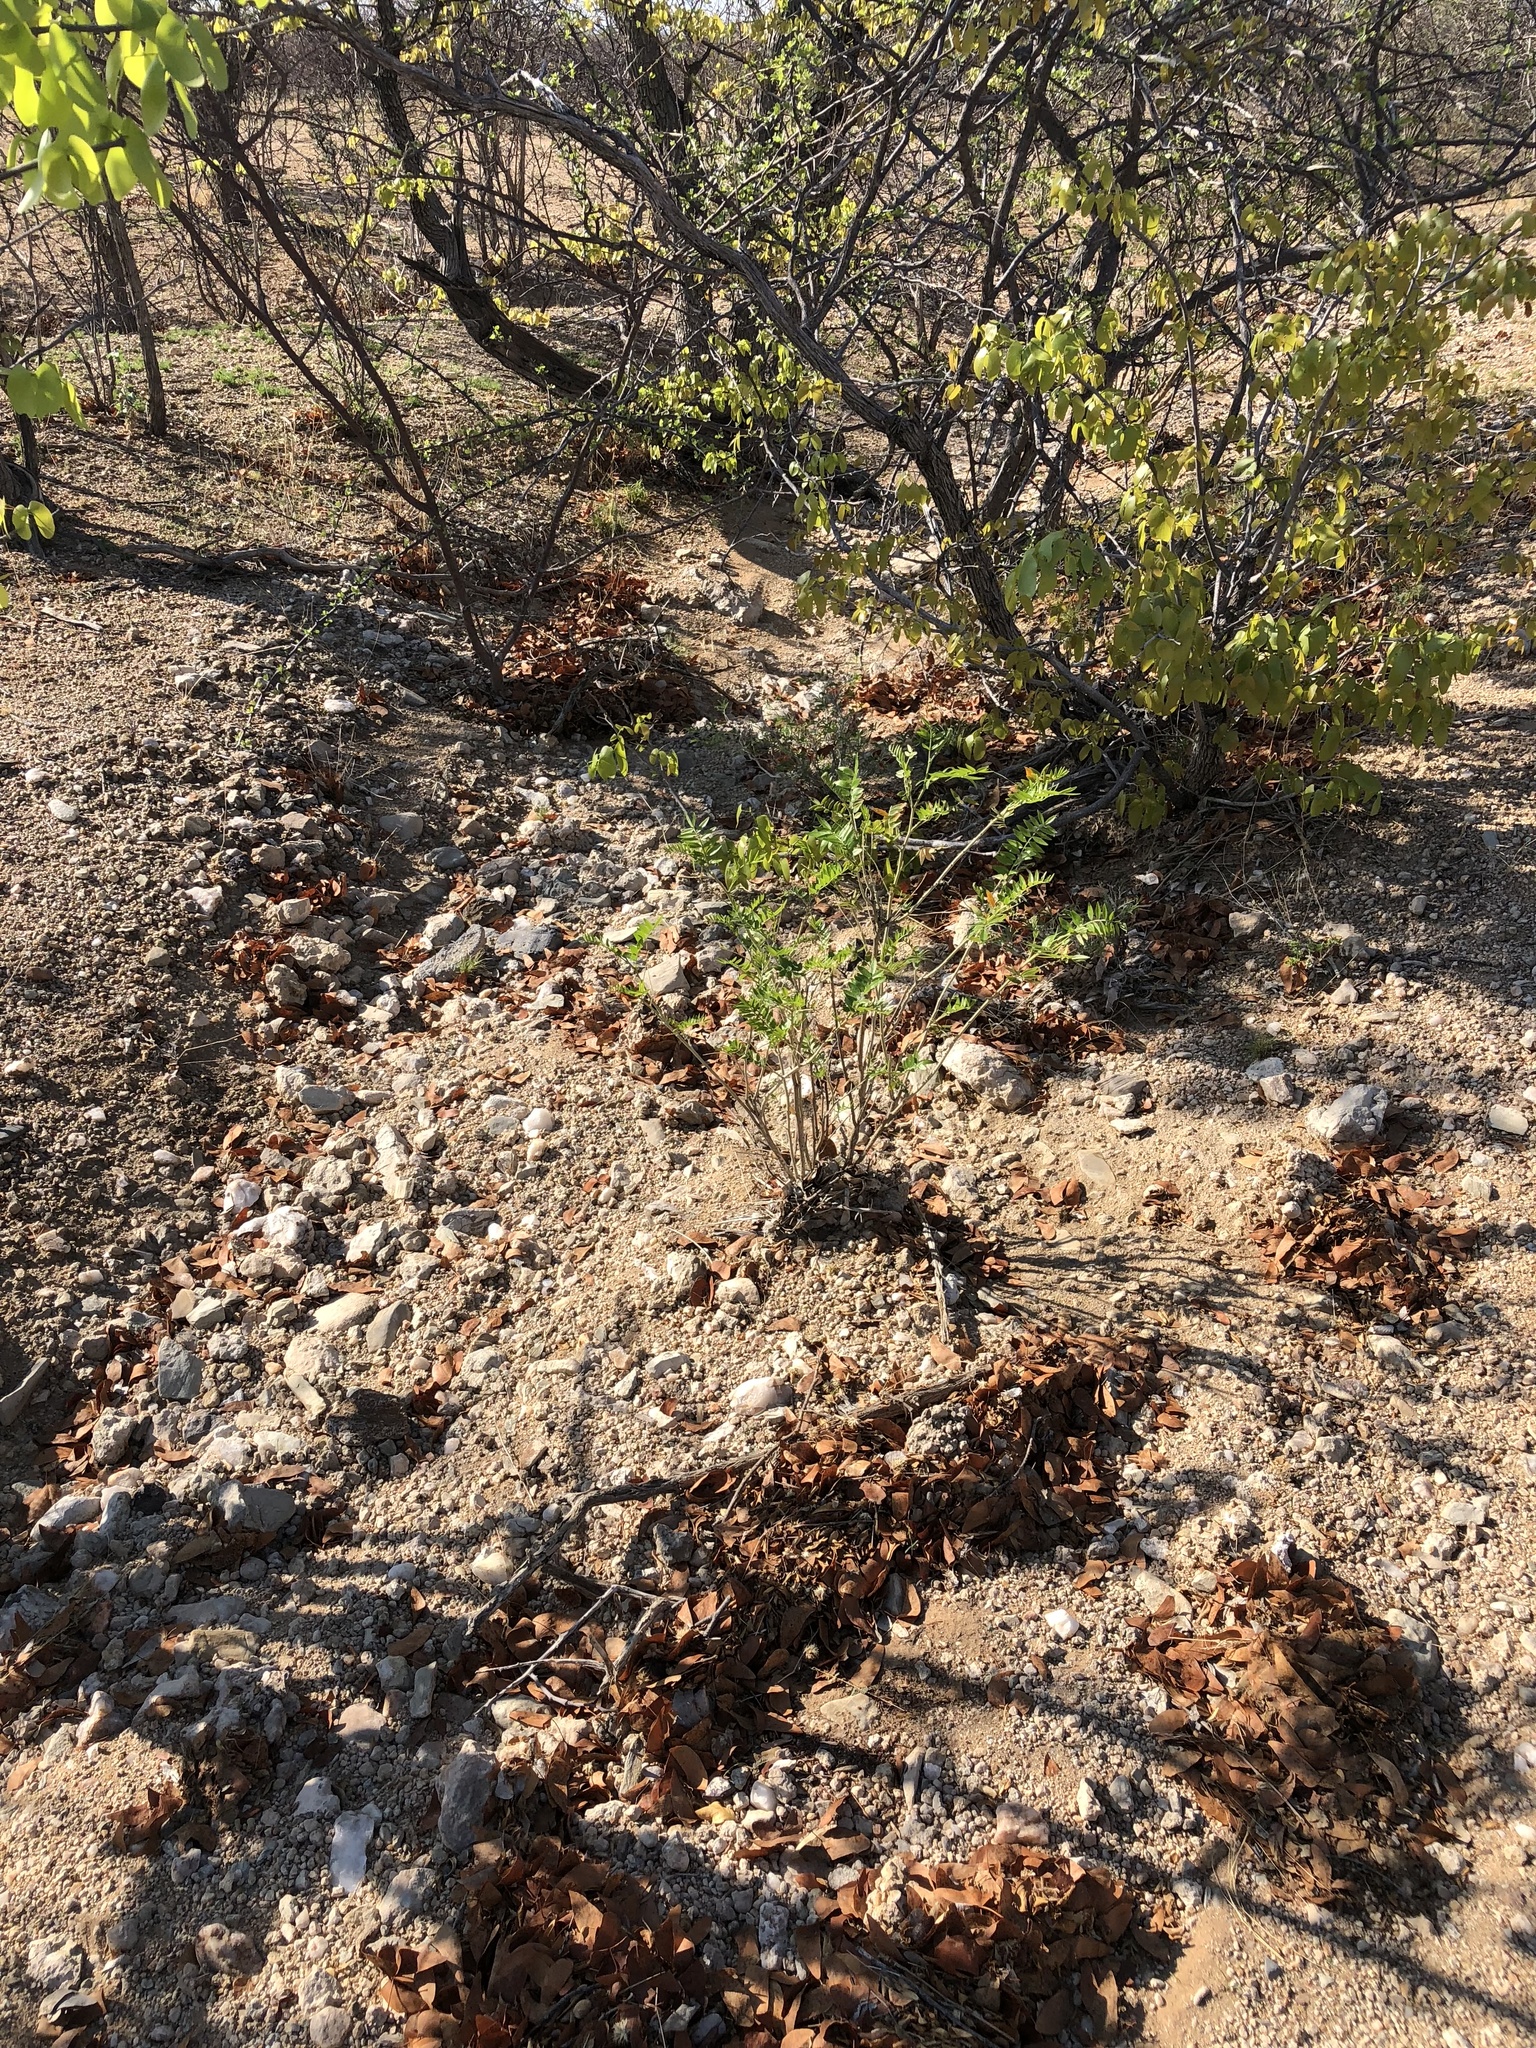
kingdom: Plantae
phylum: Tracheophyta
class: Magnoliopsida
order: Fabales
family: Fabaceae
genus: Mundulea
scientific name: Mundulea sericea
